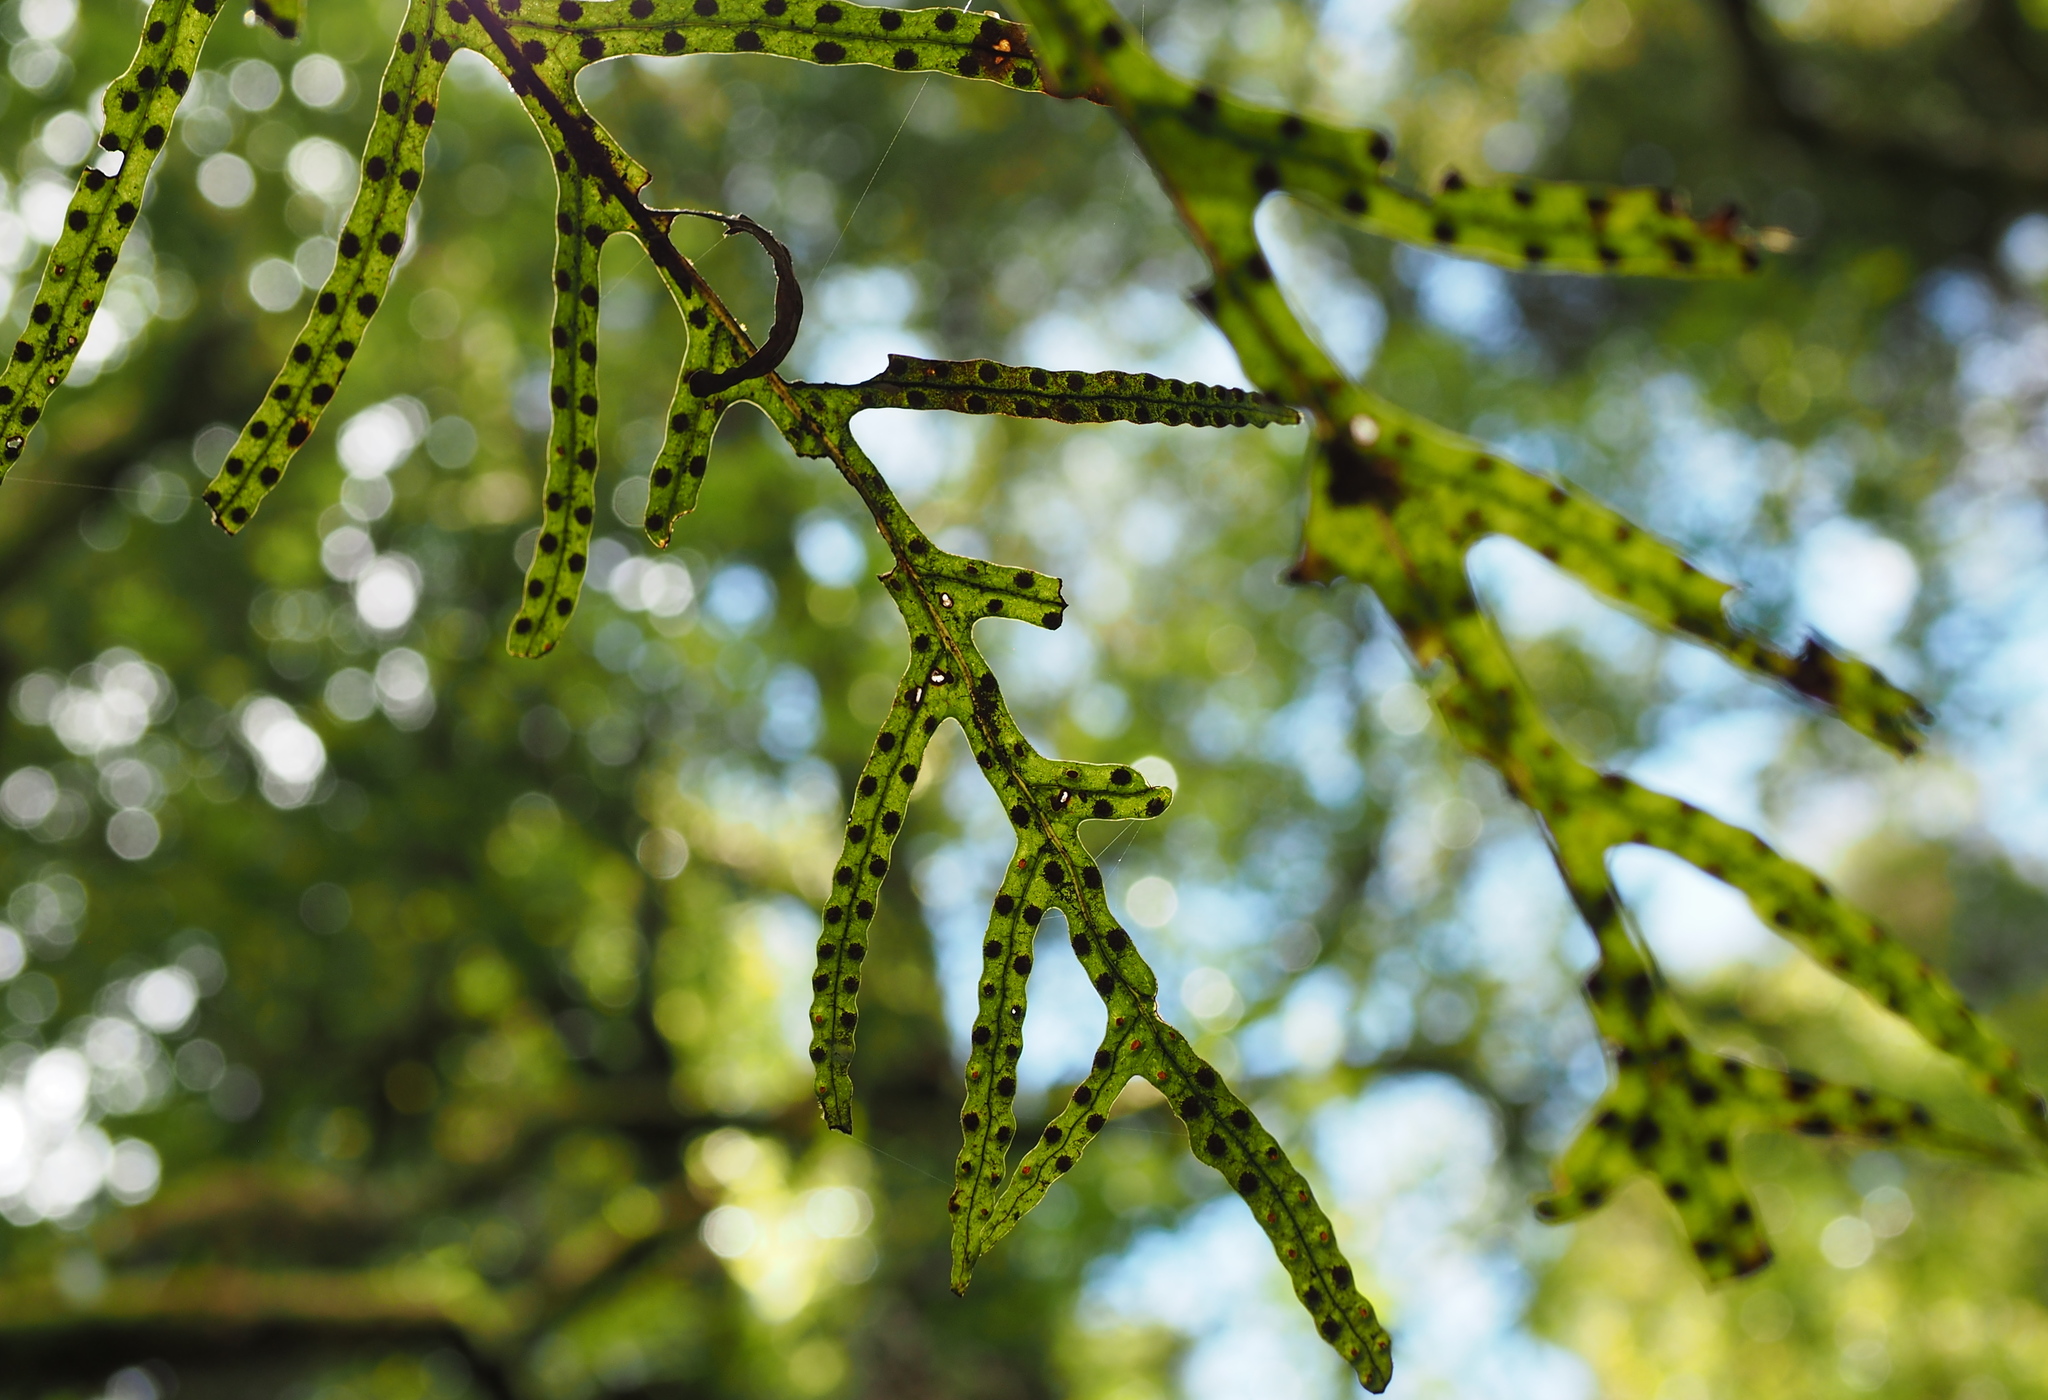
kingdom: Plantae
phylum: Tracheophyta
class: Polypodiopsida
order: Polypodiales
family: Polypodiaceae
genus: Lecanopteris
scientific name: Lecanopteris pustulata
